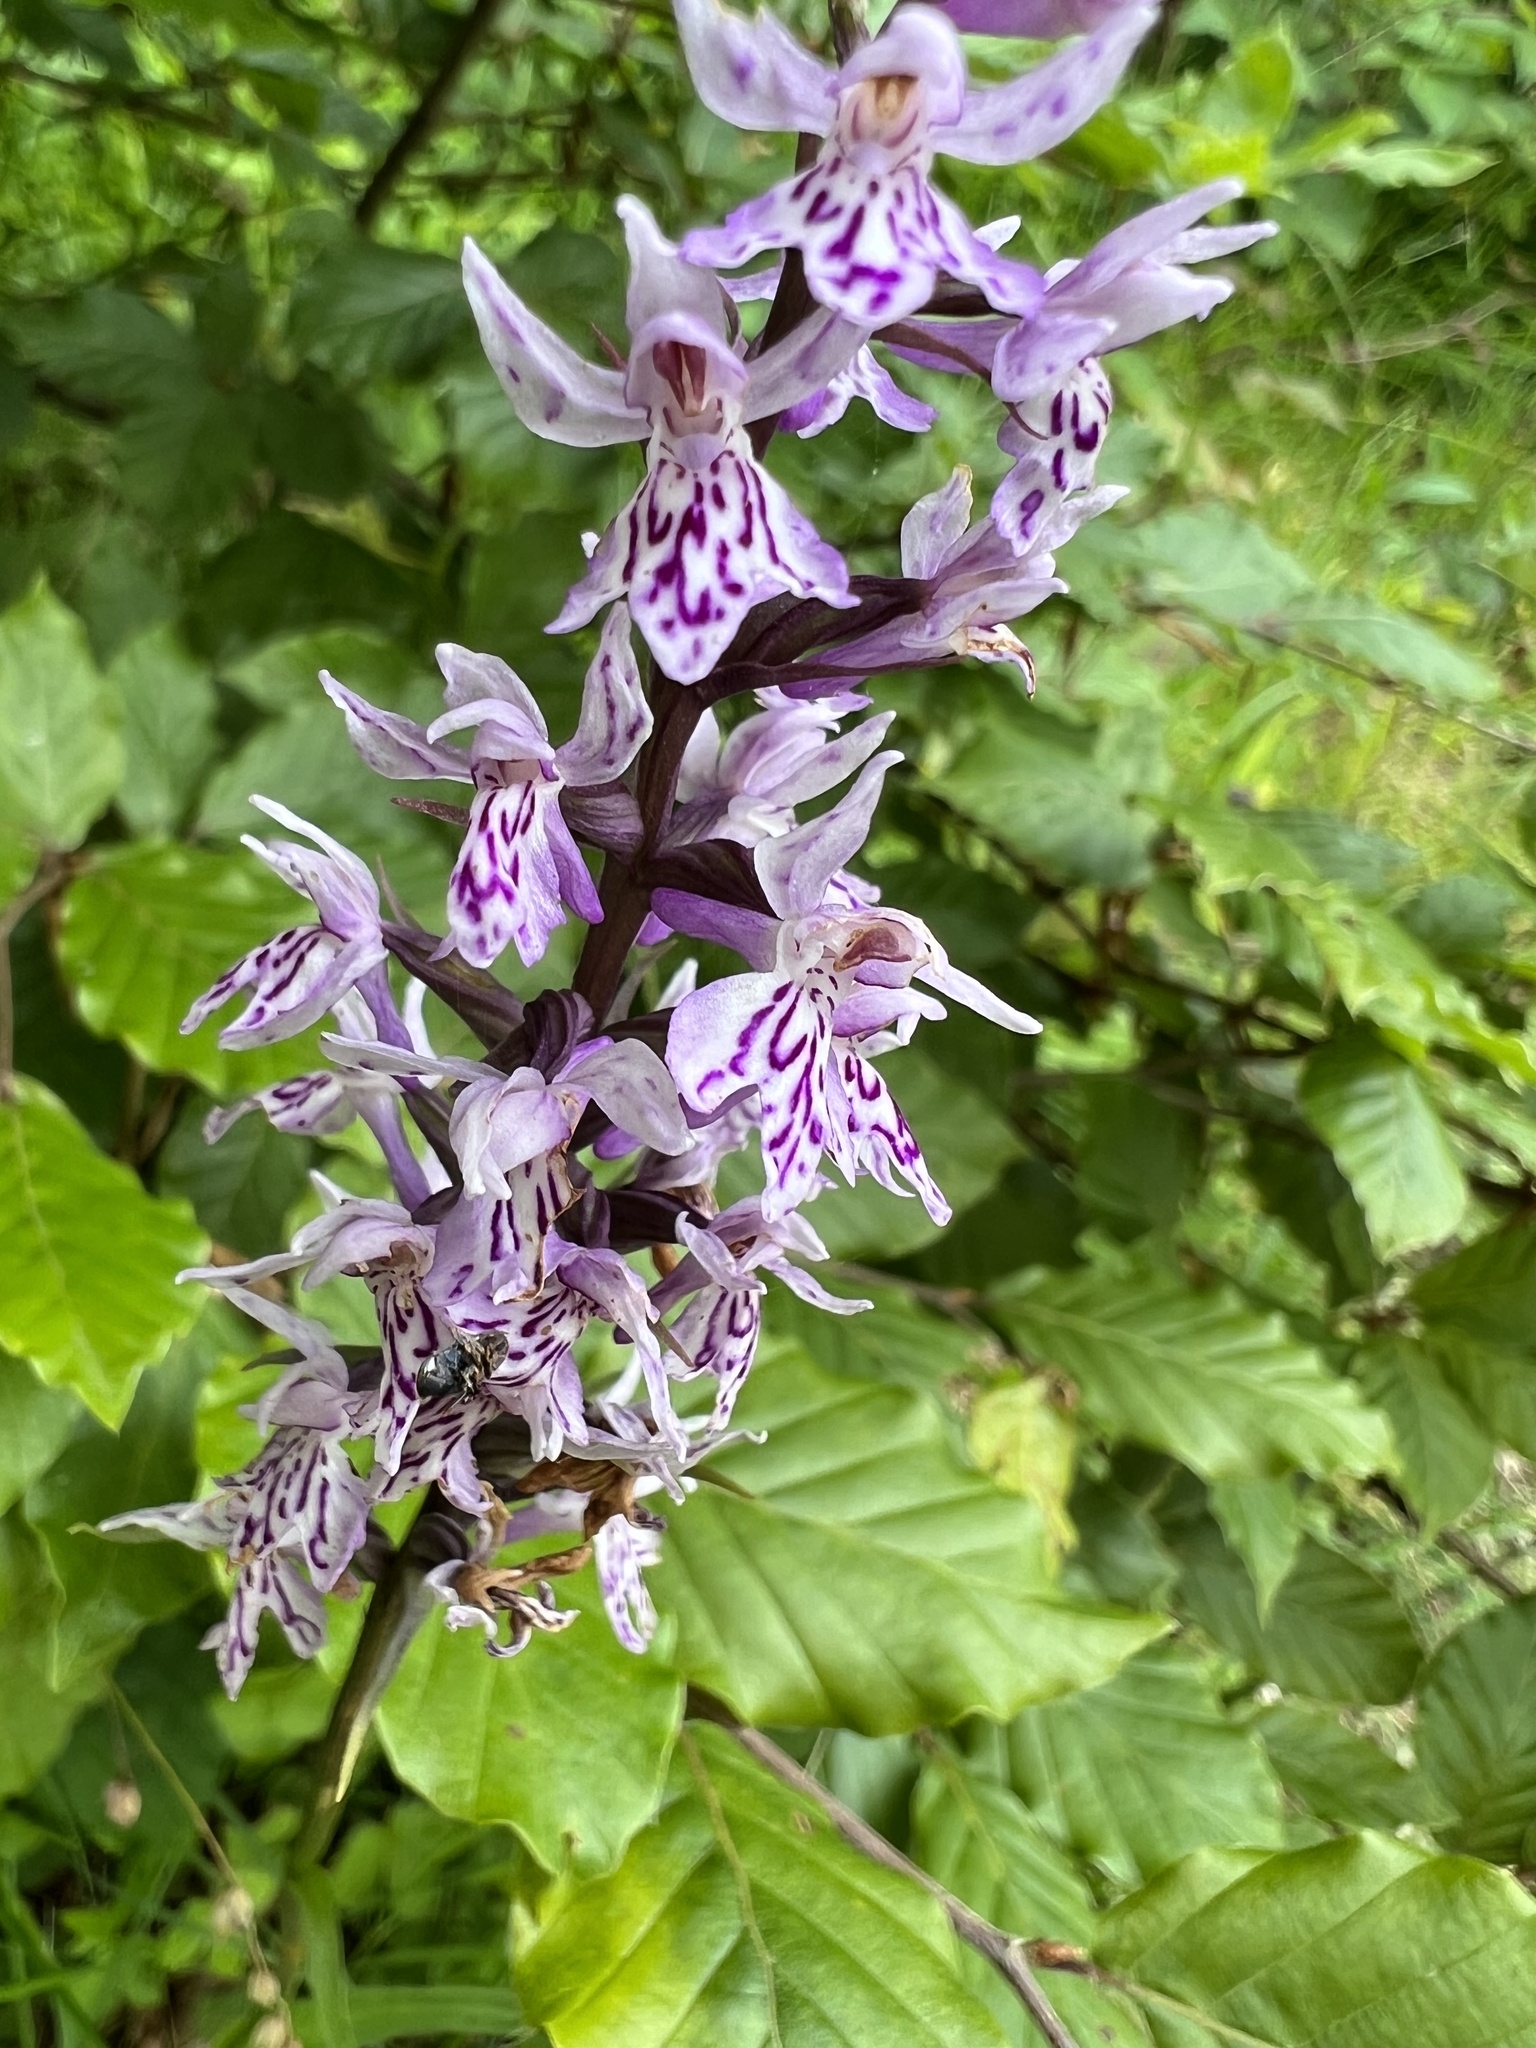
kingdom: Plantae
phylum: Tracheophyta
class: Liliopsida
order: Asparagales
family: Orchidaceae
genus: Dactylorhiza
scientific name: Dactylorhiza maculata
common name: Heath spotted-orchid
